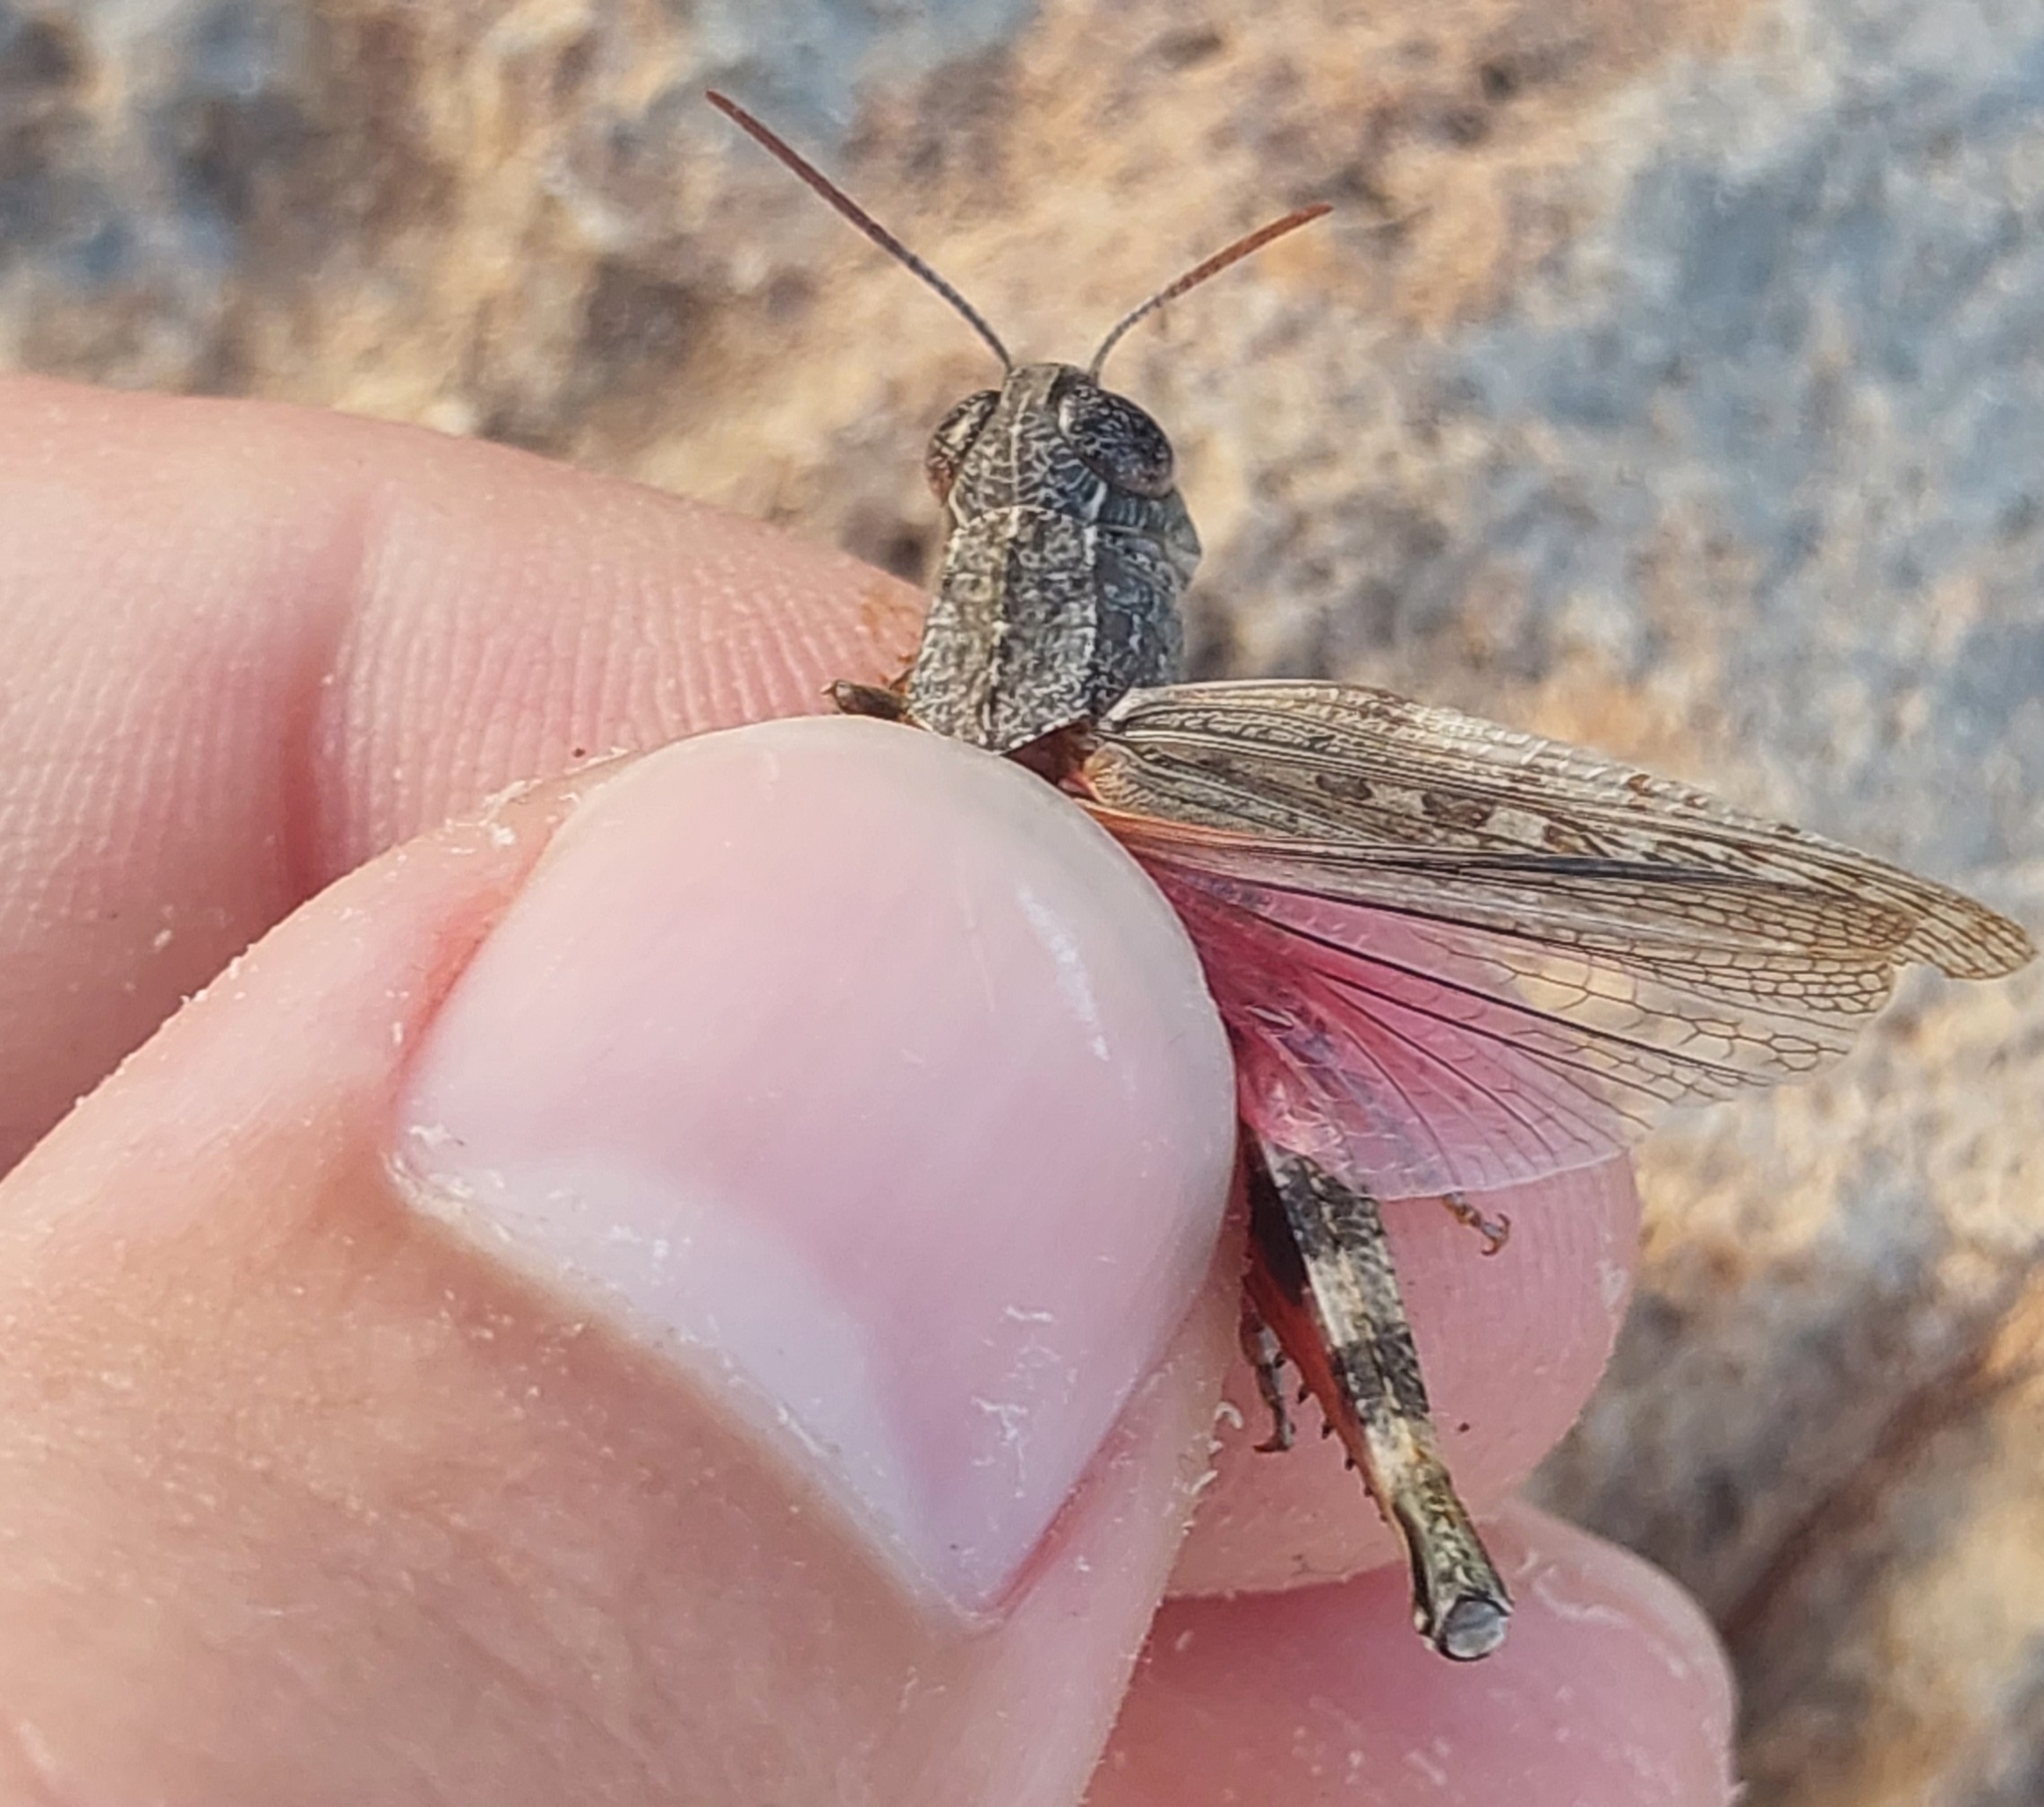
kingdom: Animalia
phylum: Arthropoda
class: Insecta
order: Orthoptera
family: Acrididae
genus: Calliptamus
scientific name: Calliptamus barbarus
